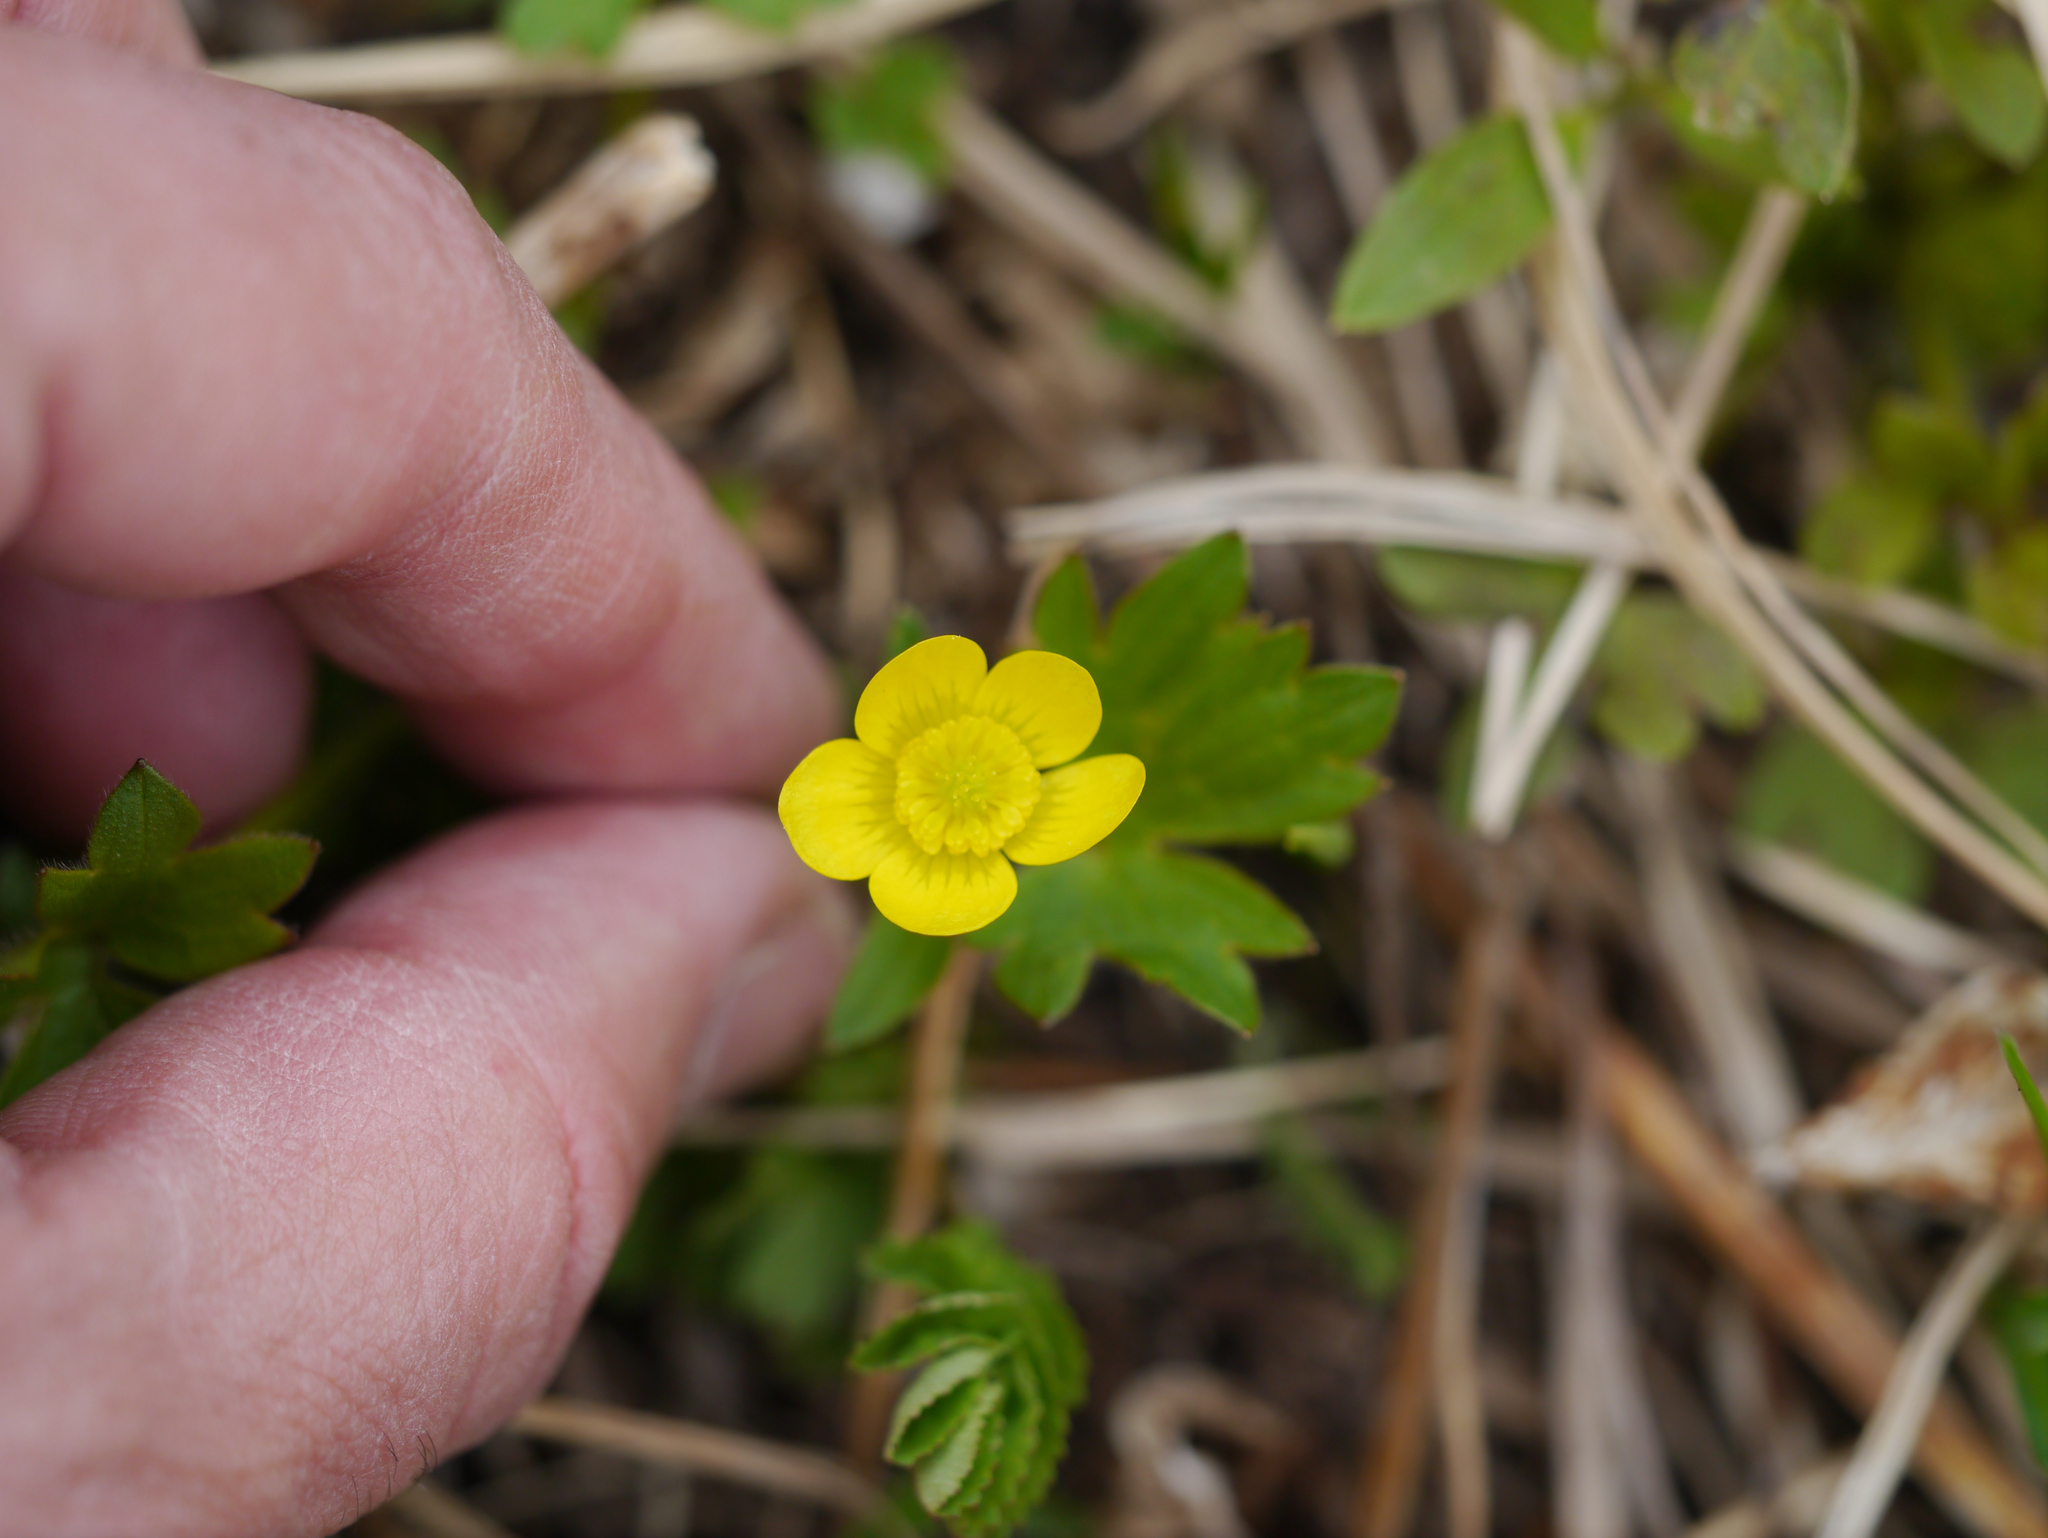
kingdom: Plantae
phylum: Tracheophyta
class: Magnoliopsida
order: Ranunculales
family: Ranunculaceae
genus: Ranunculus
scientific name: Ranunculus occidentalis
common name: Western buttercup
